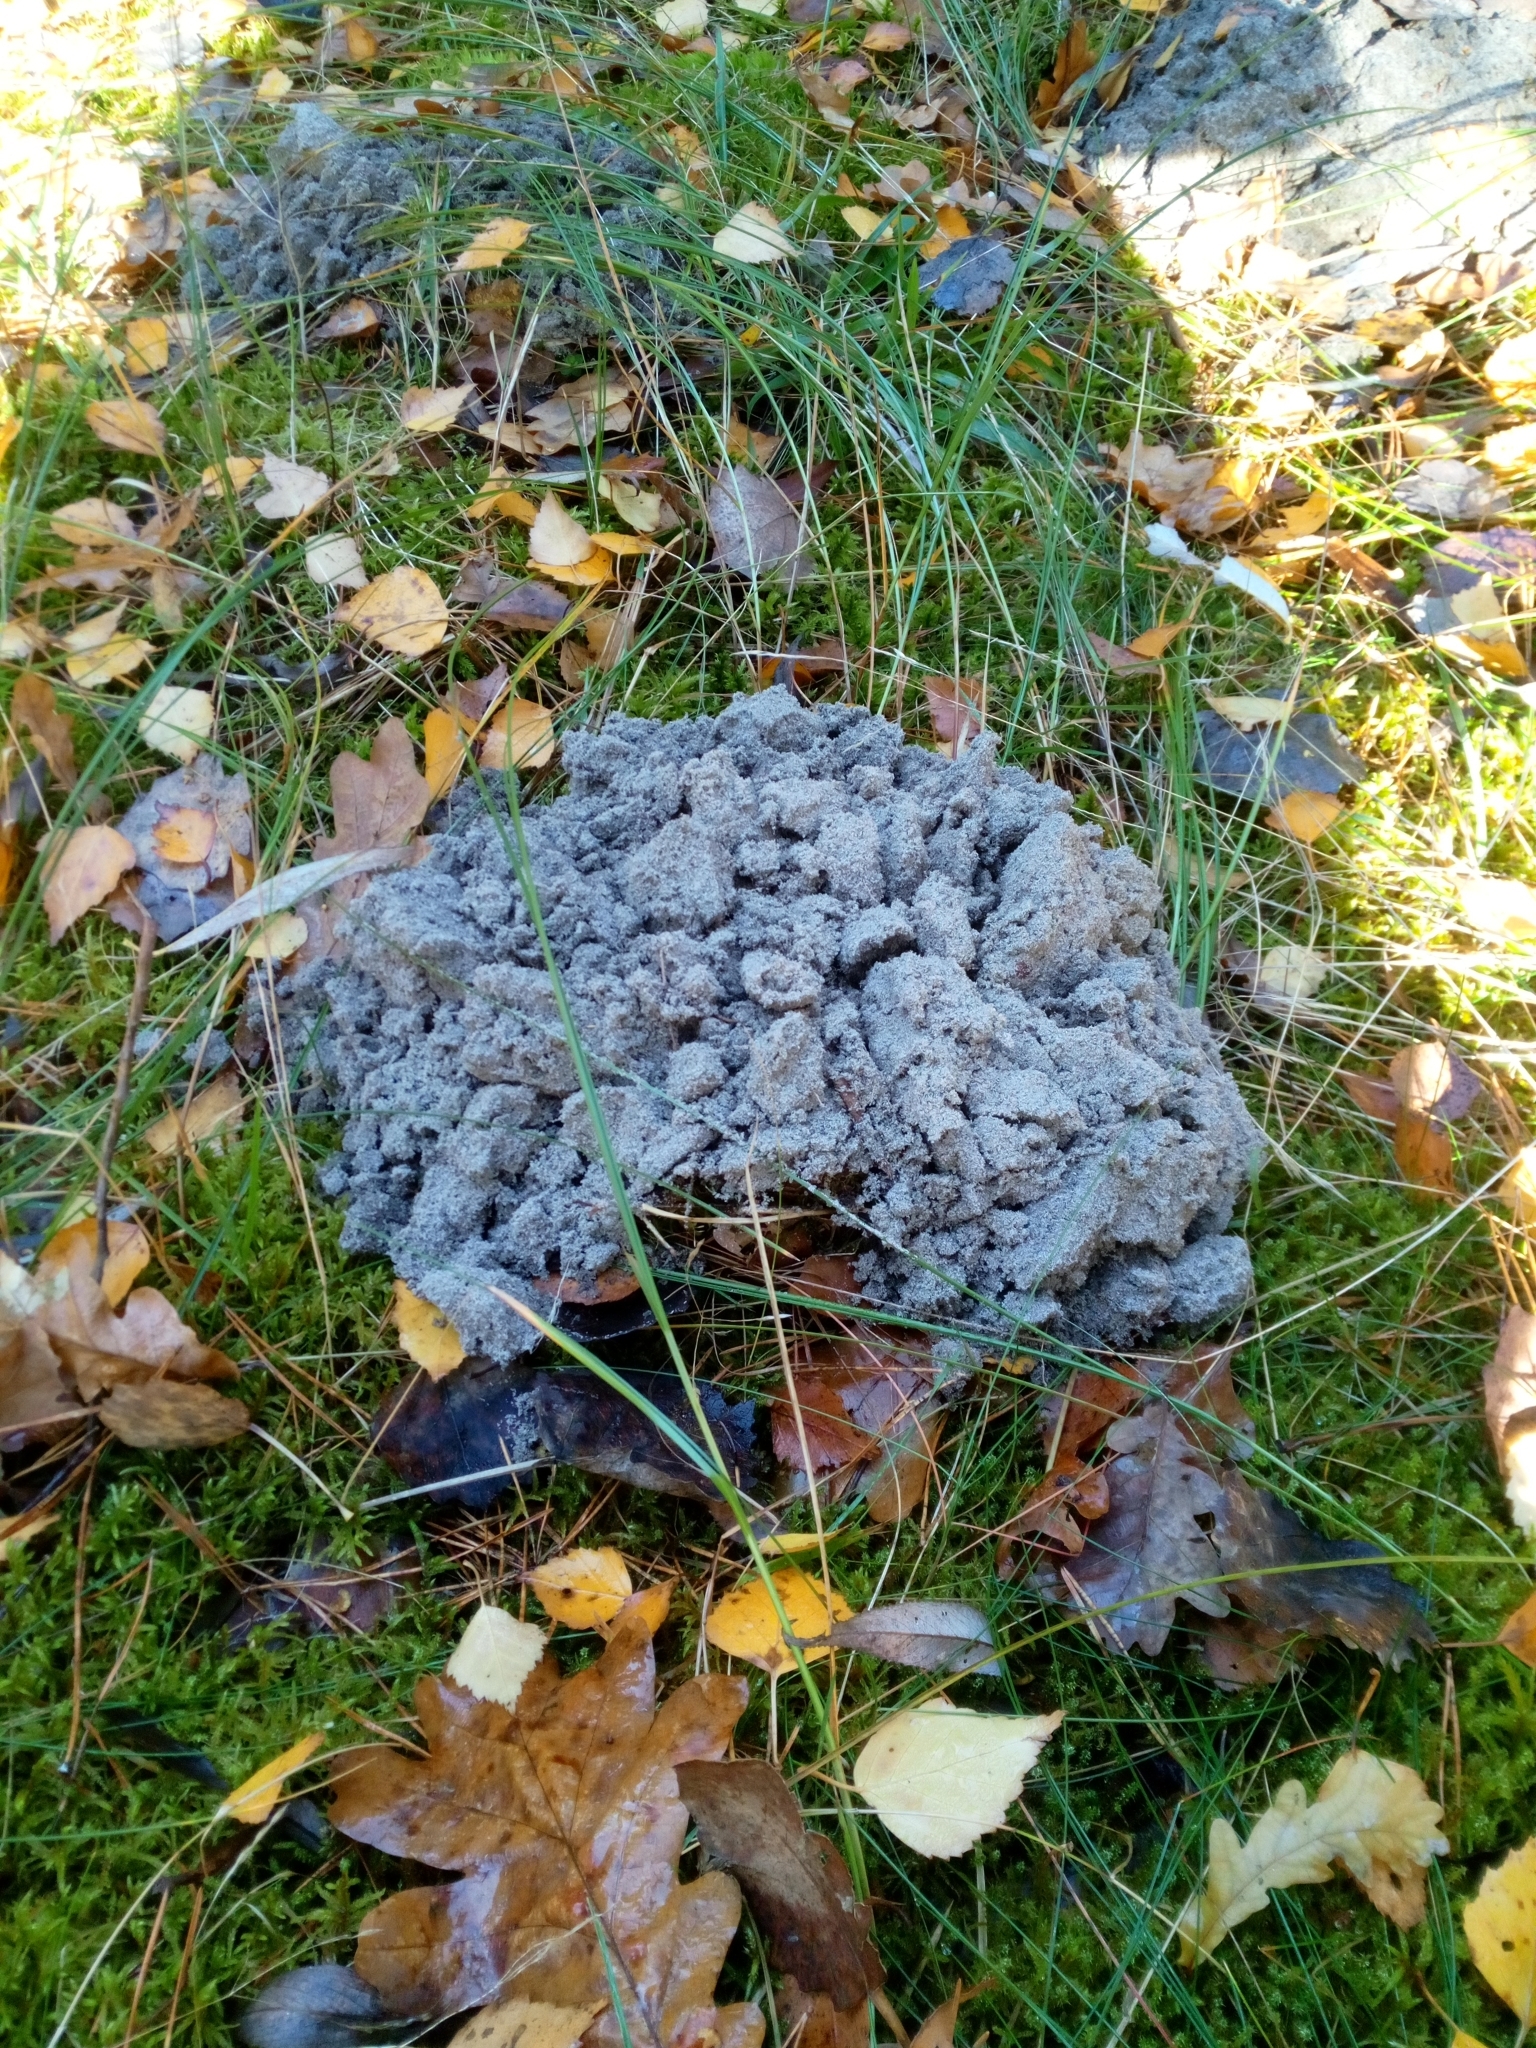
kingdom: Animalia
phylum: Chordata
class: Mammalia
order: Soricomorpha
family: Talpidae
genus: Talpa
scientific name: Talpa europaea
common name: European mole
